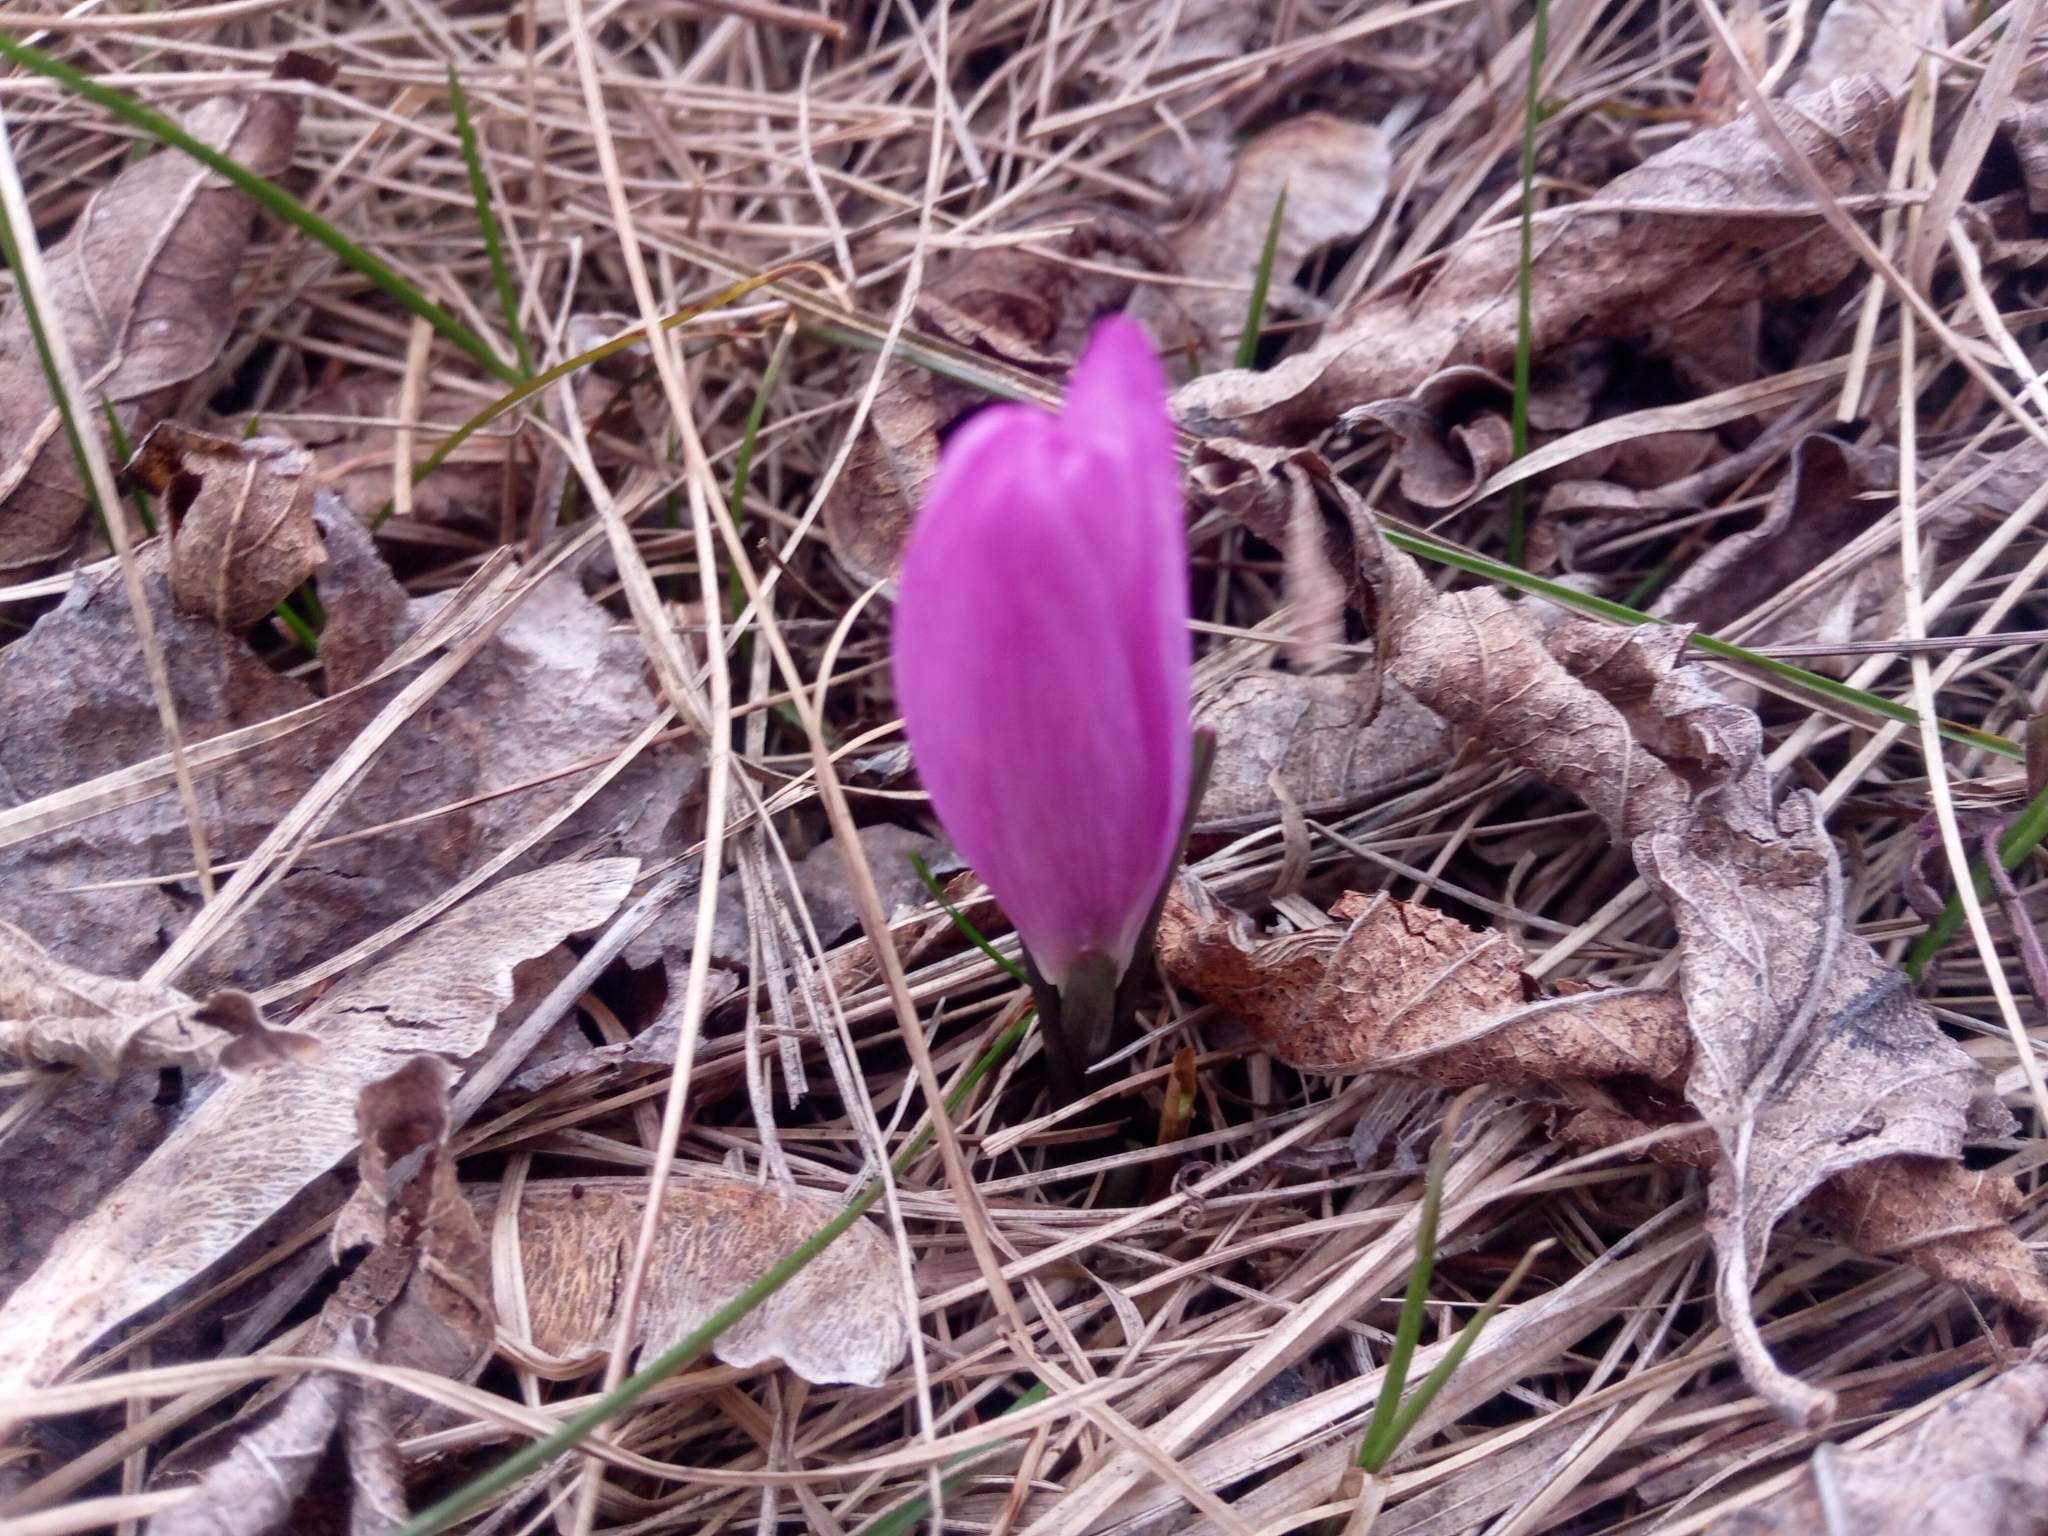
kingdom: Plantae
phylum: Tracheophyta
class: Liliopsida
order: Liliales
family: Colchicaceae
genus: Colchicum
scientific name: Colchicum bulbocodium
